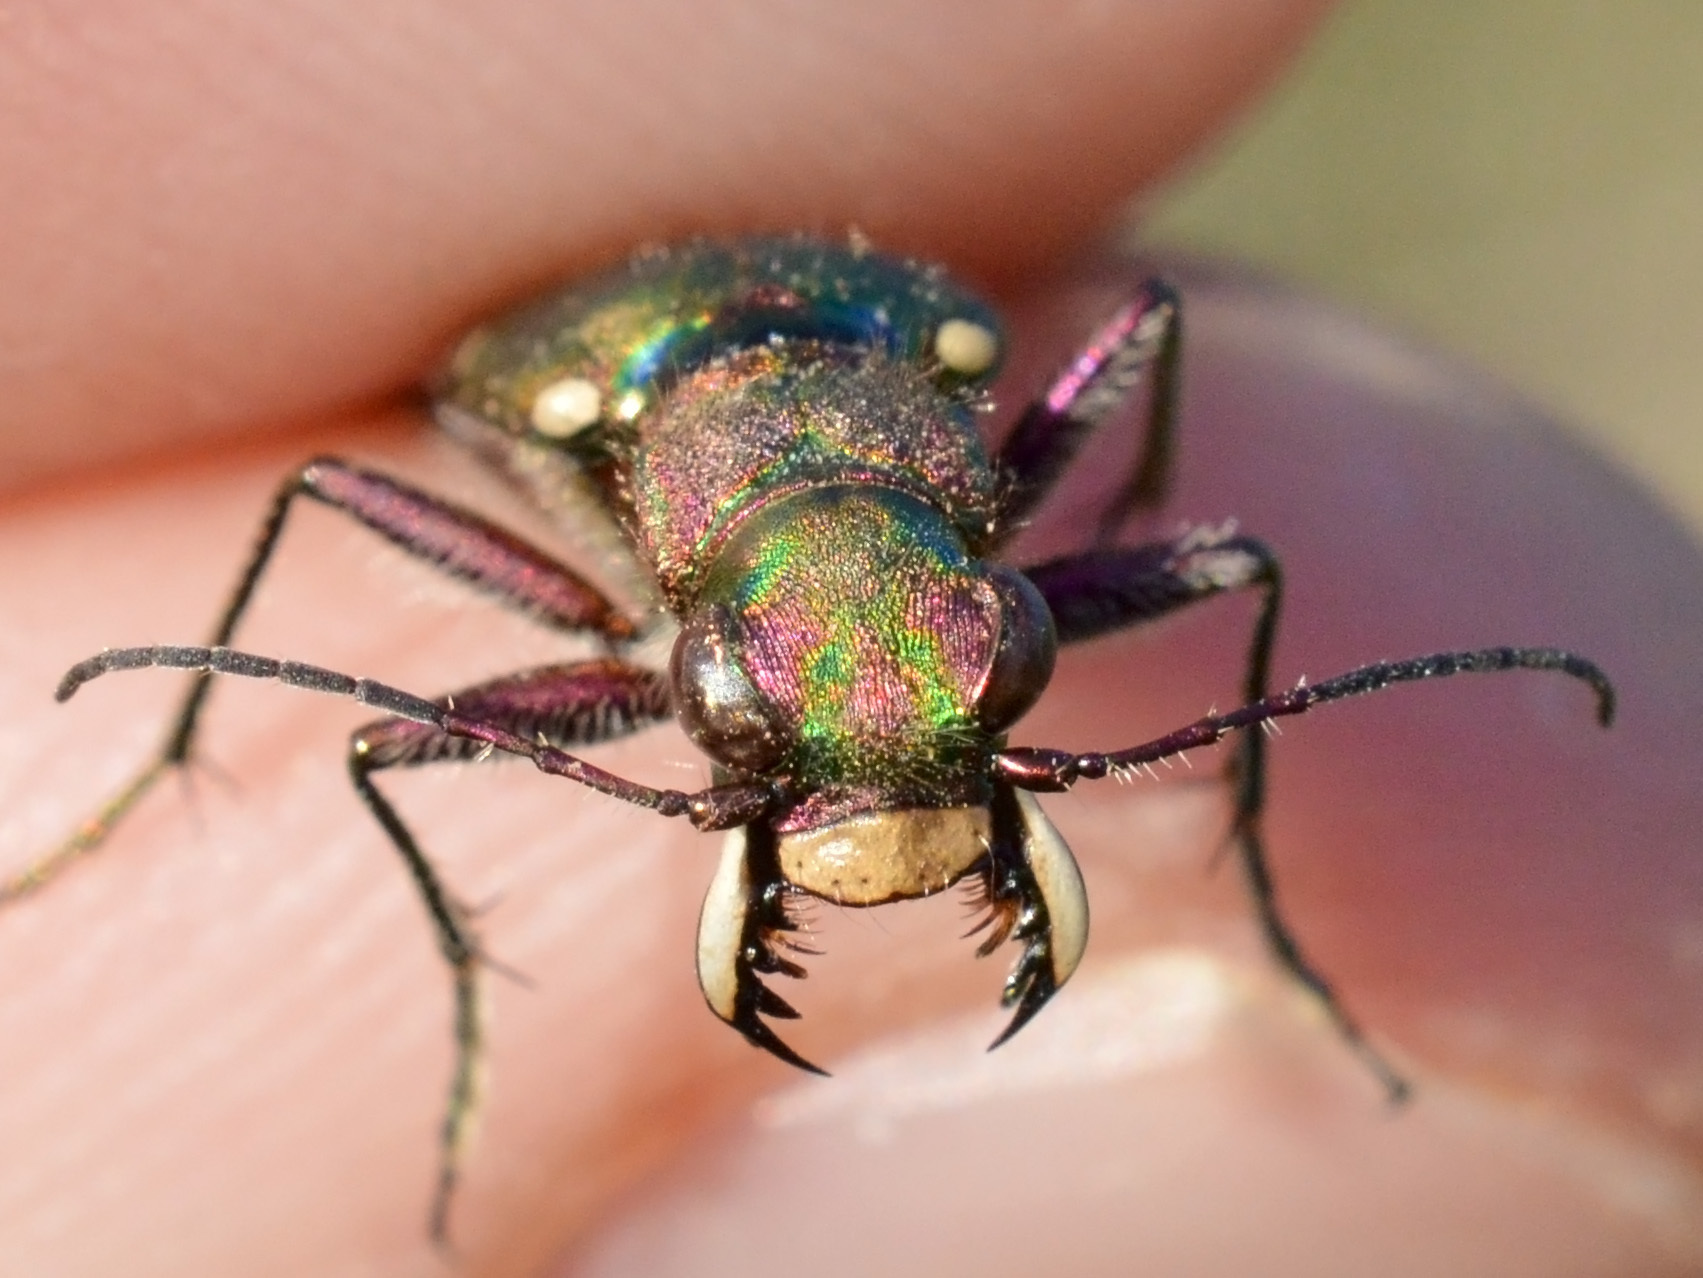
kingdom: Animalia
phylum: Arthropoda
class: Insecta
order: Coleoptera
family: Carabidae
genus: Cicindela
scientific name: Cicindela campestris
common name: Common tiger beetle
